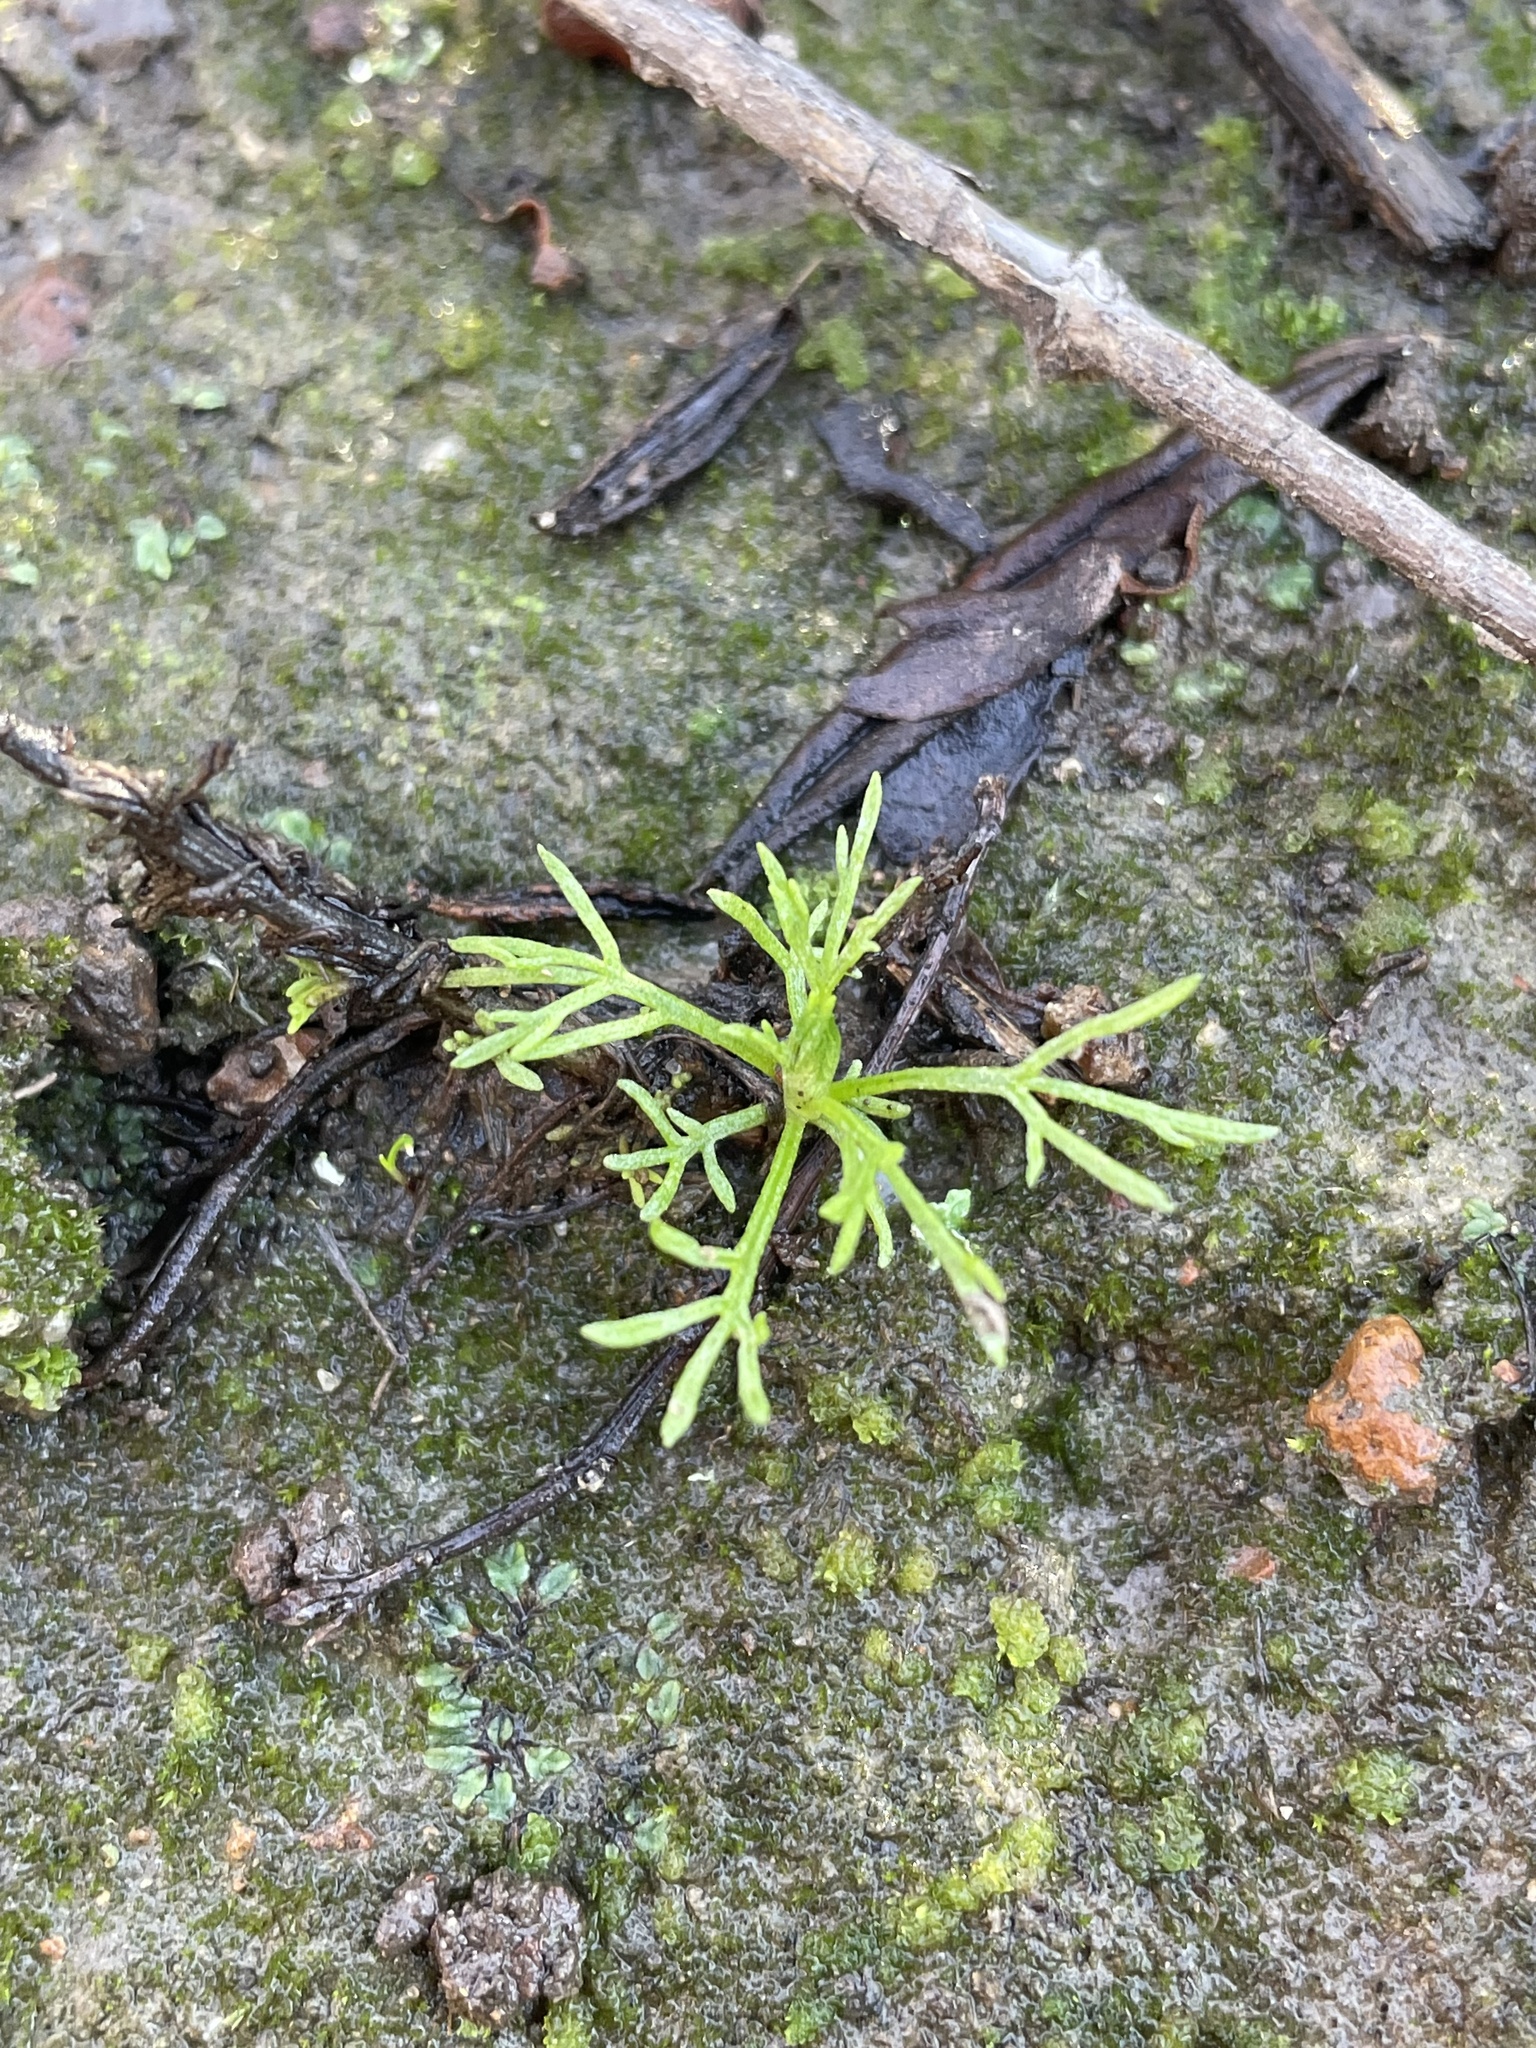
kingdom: Plantae
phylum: Tracheophyta
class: Magnoliopsida
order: Asterales
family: Asteraceae
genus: Artemisia
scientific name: Artemisia californica
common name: California sagebrush
